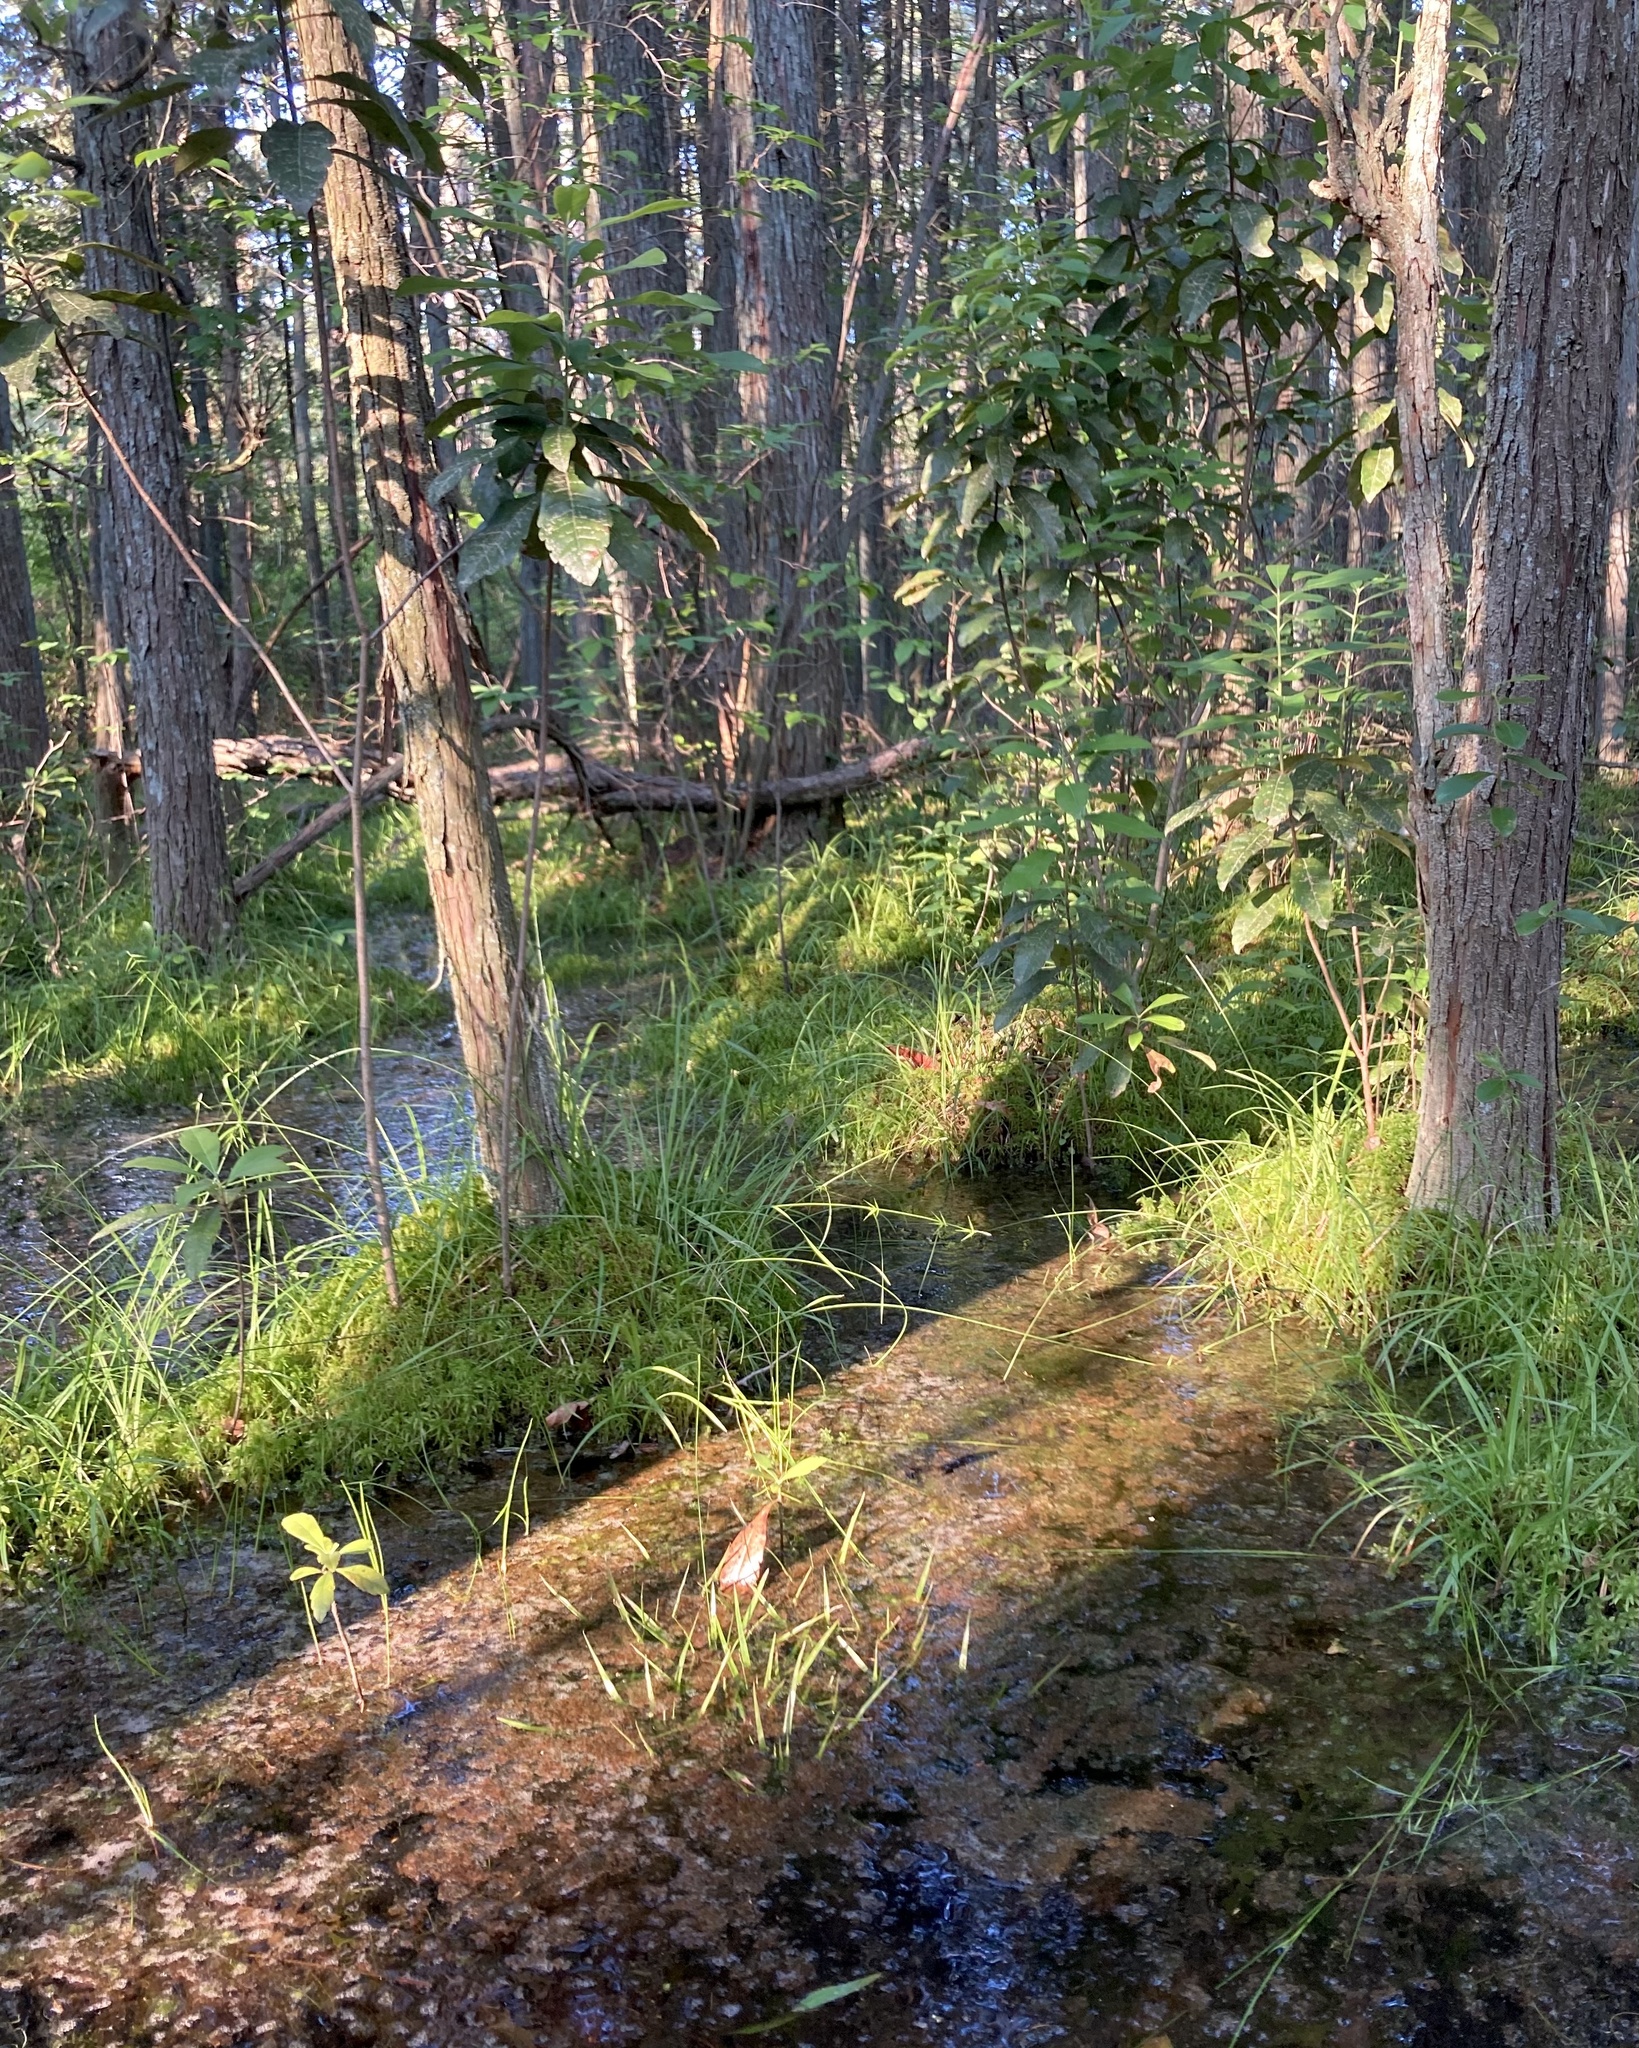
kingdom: Plantae
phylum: Tracheophyta
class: Liliopsida
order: Poales
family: Cyperaceae
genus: Carex
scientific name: Carex collinsii
